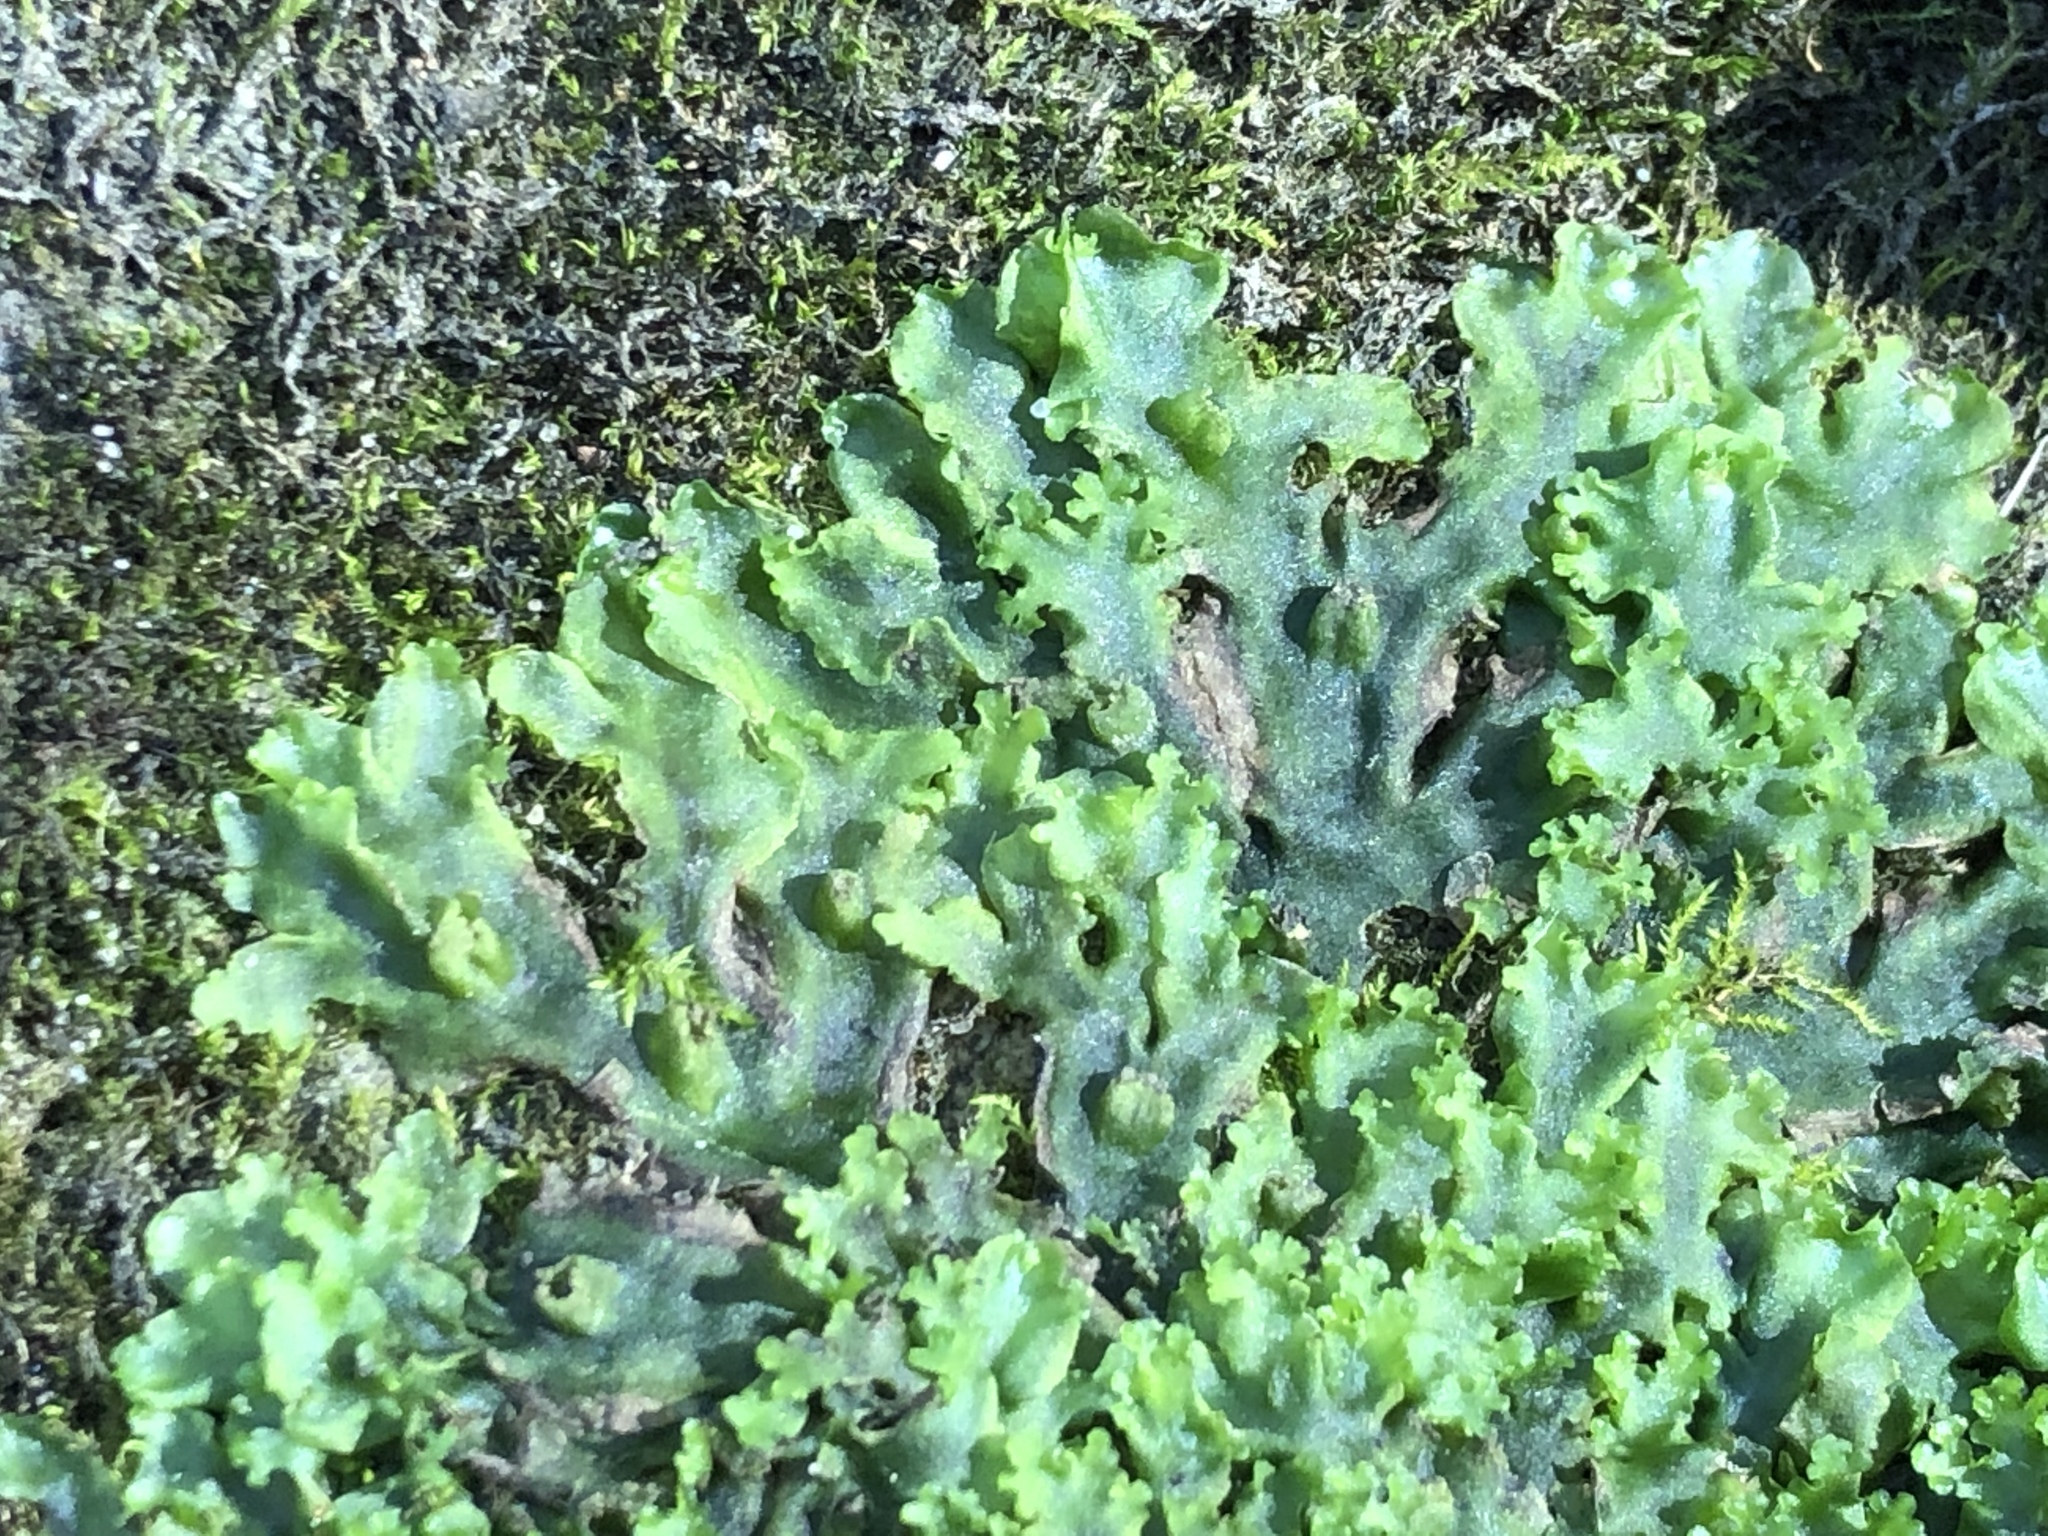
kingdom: Plantae
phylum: Marchantiophyta
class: Marchantiopsida
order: Marchantiales
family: Conocephalaceae
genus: Conocephalum
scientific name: Conocephalum salebrosum
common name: Cat-tongue liverwort
